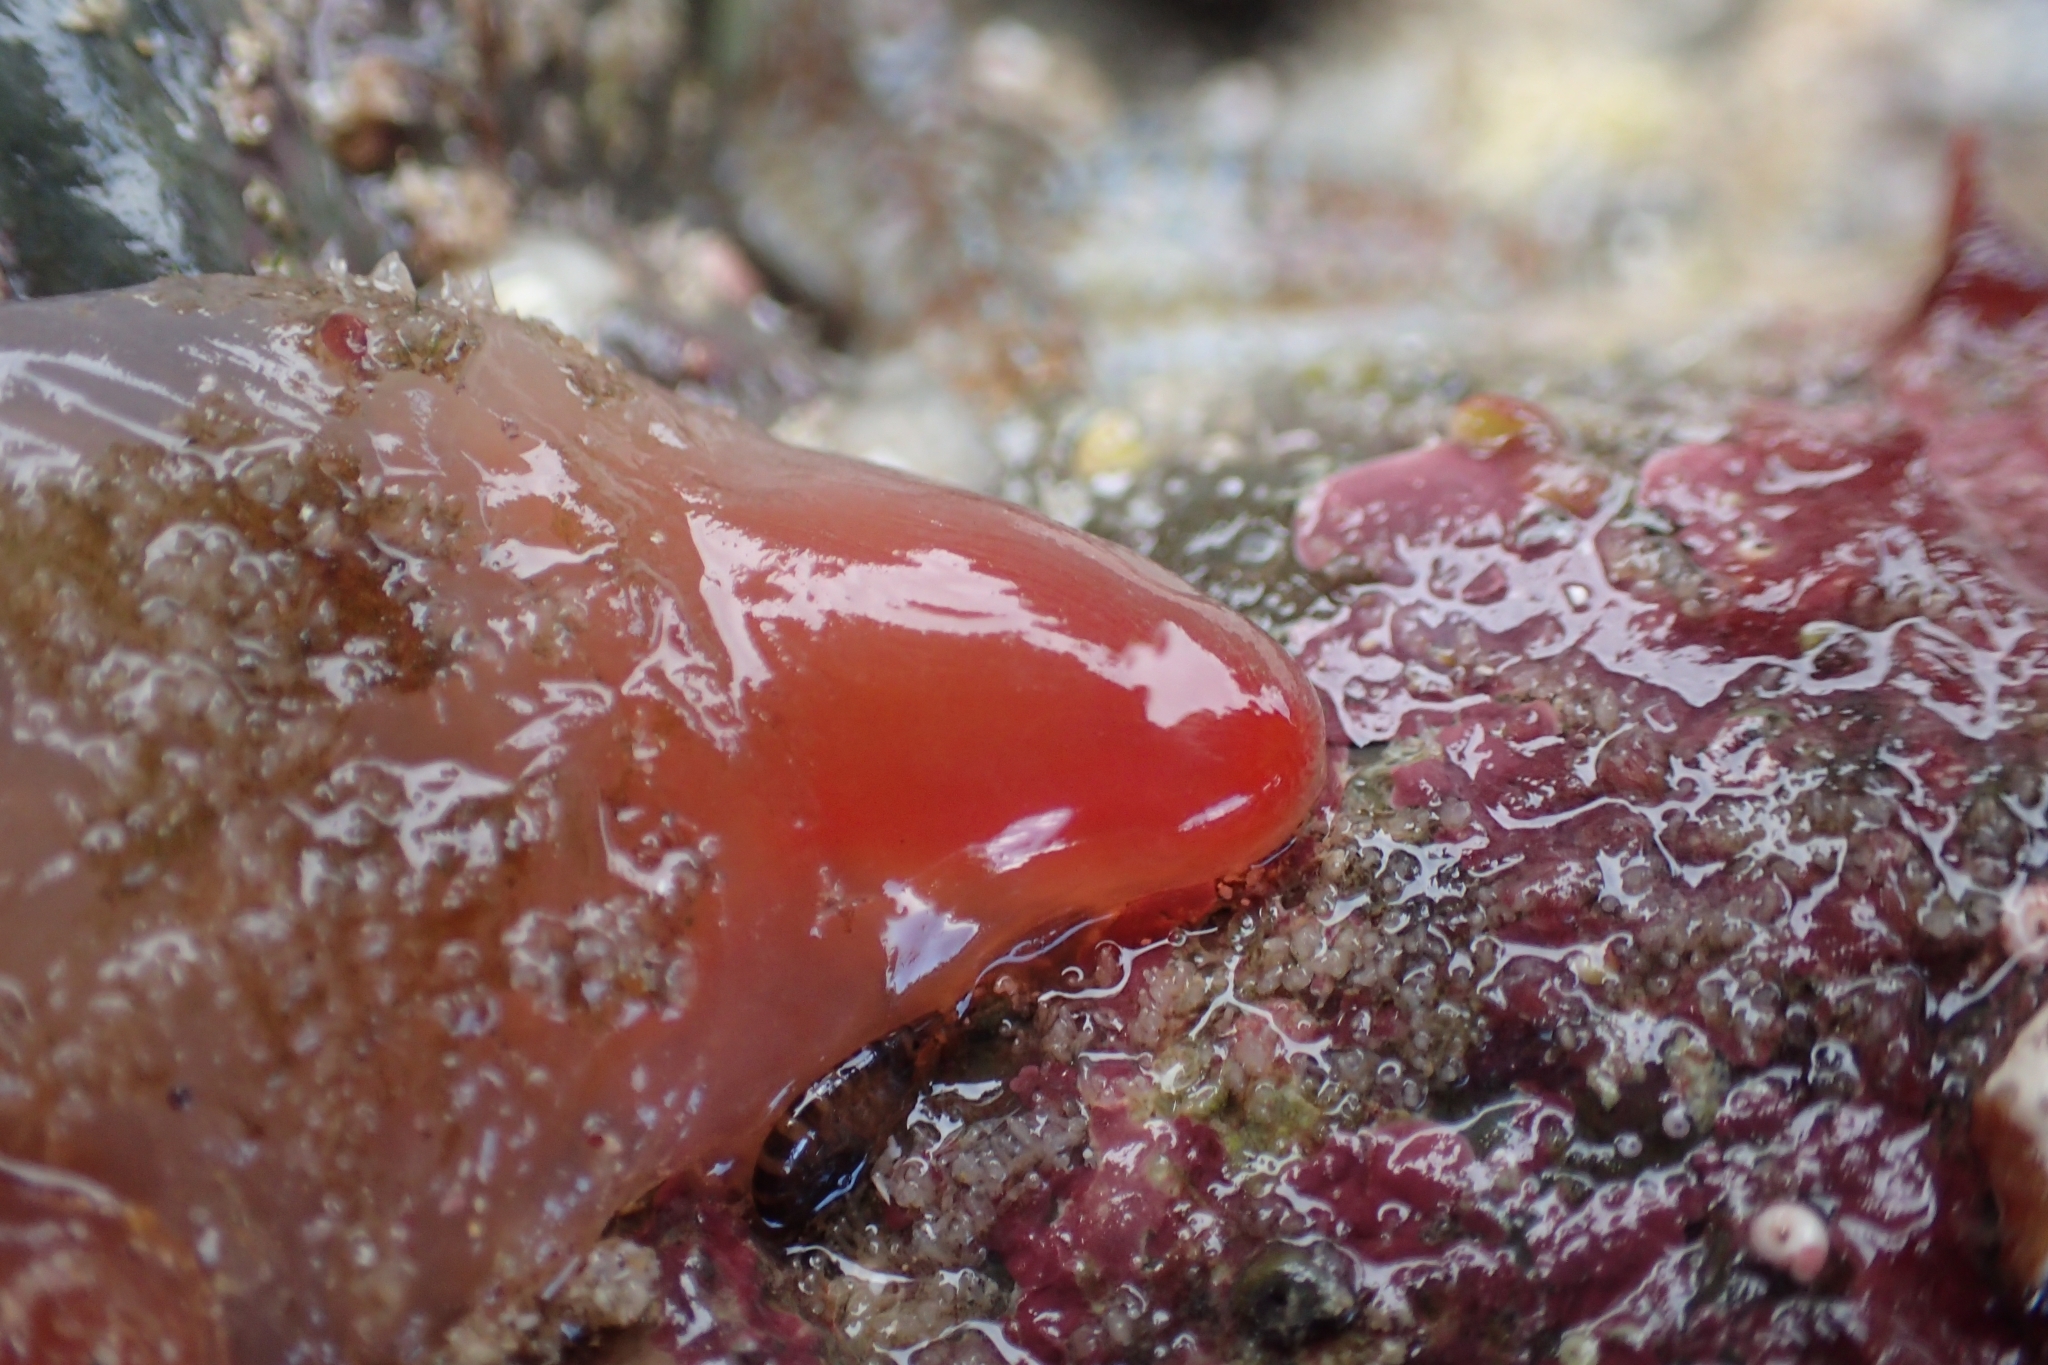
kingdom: Animalia
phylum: Chordata
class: Ascidiacea
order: Phlebobranchia
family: Corellidae
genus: Corella
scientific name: Corella eumyota
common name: Orange-tipped sea squirt
